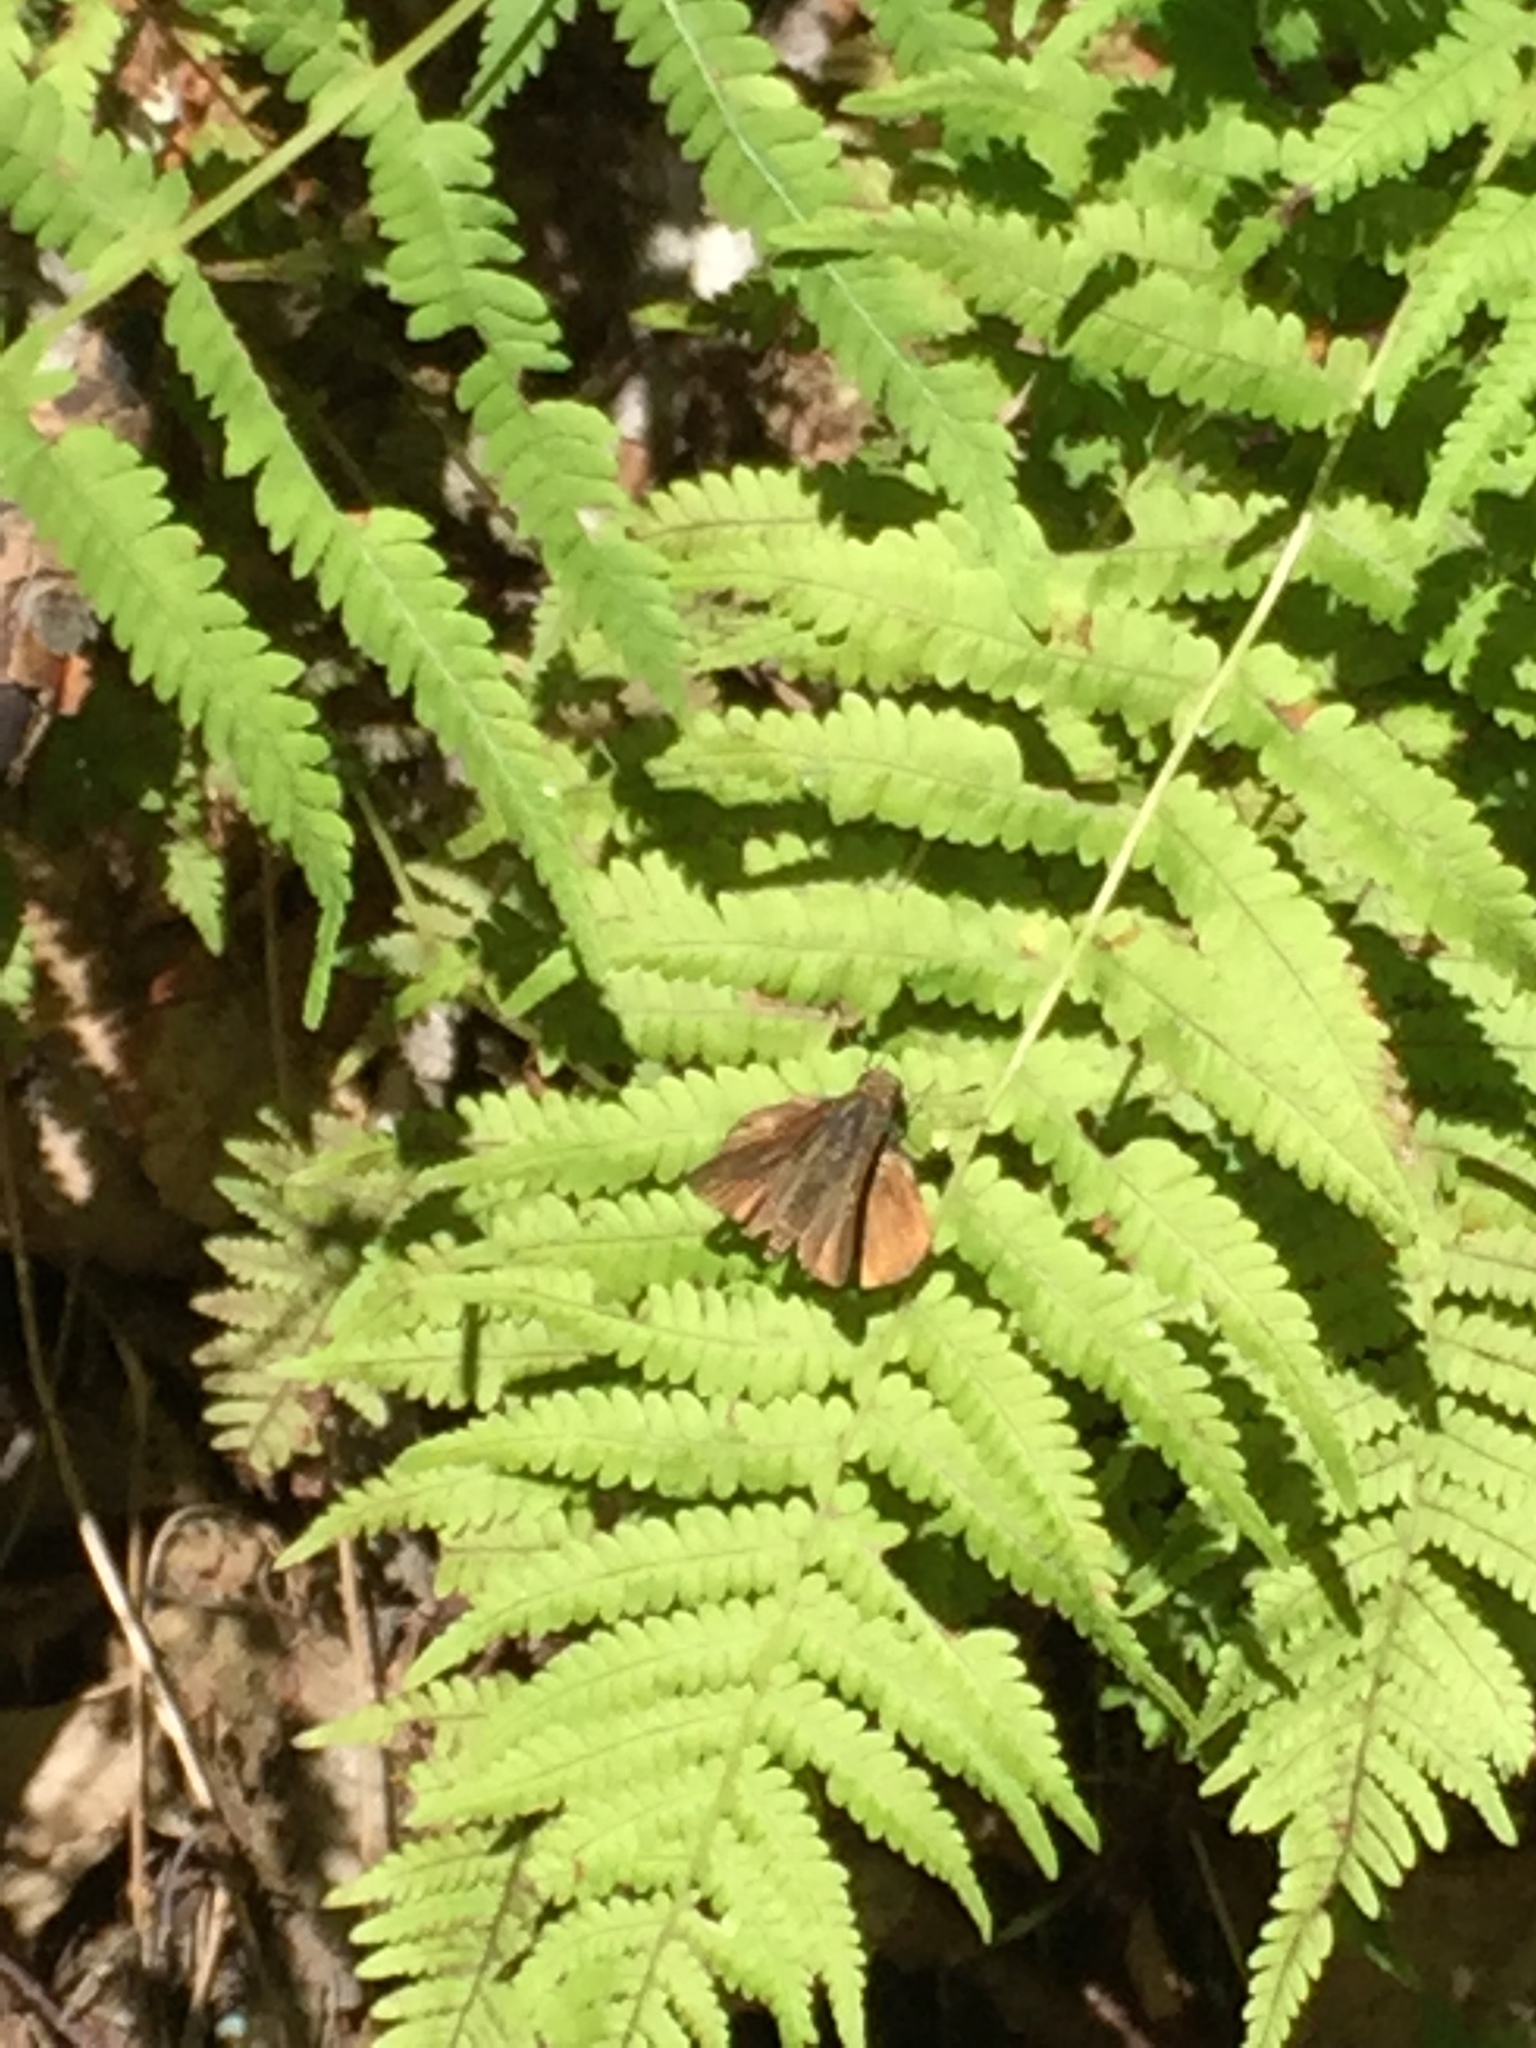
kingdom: Animalia
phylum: Arthropoda
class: Insecta
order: Lepidoptera
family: Hesperiidae
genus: Euphyes
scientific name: Euphyes vestris
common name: Dun skipper
